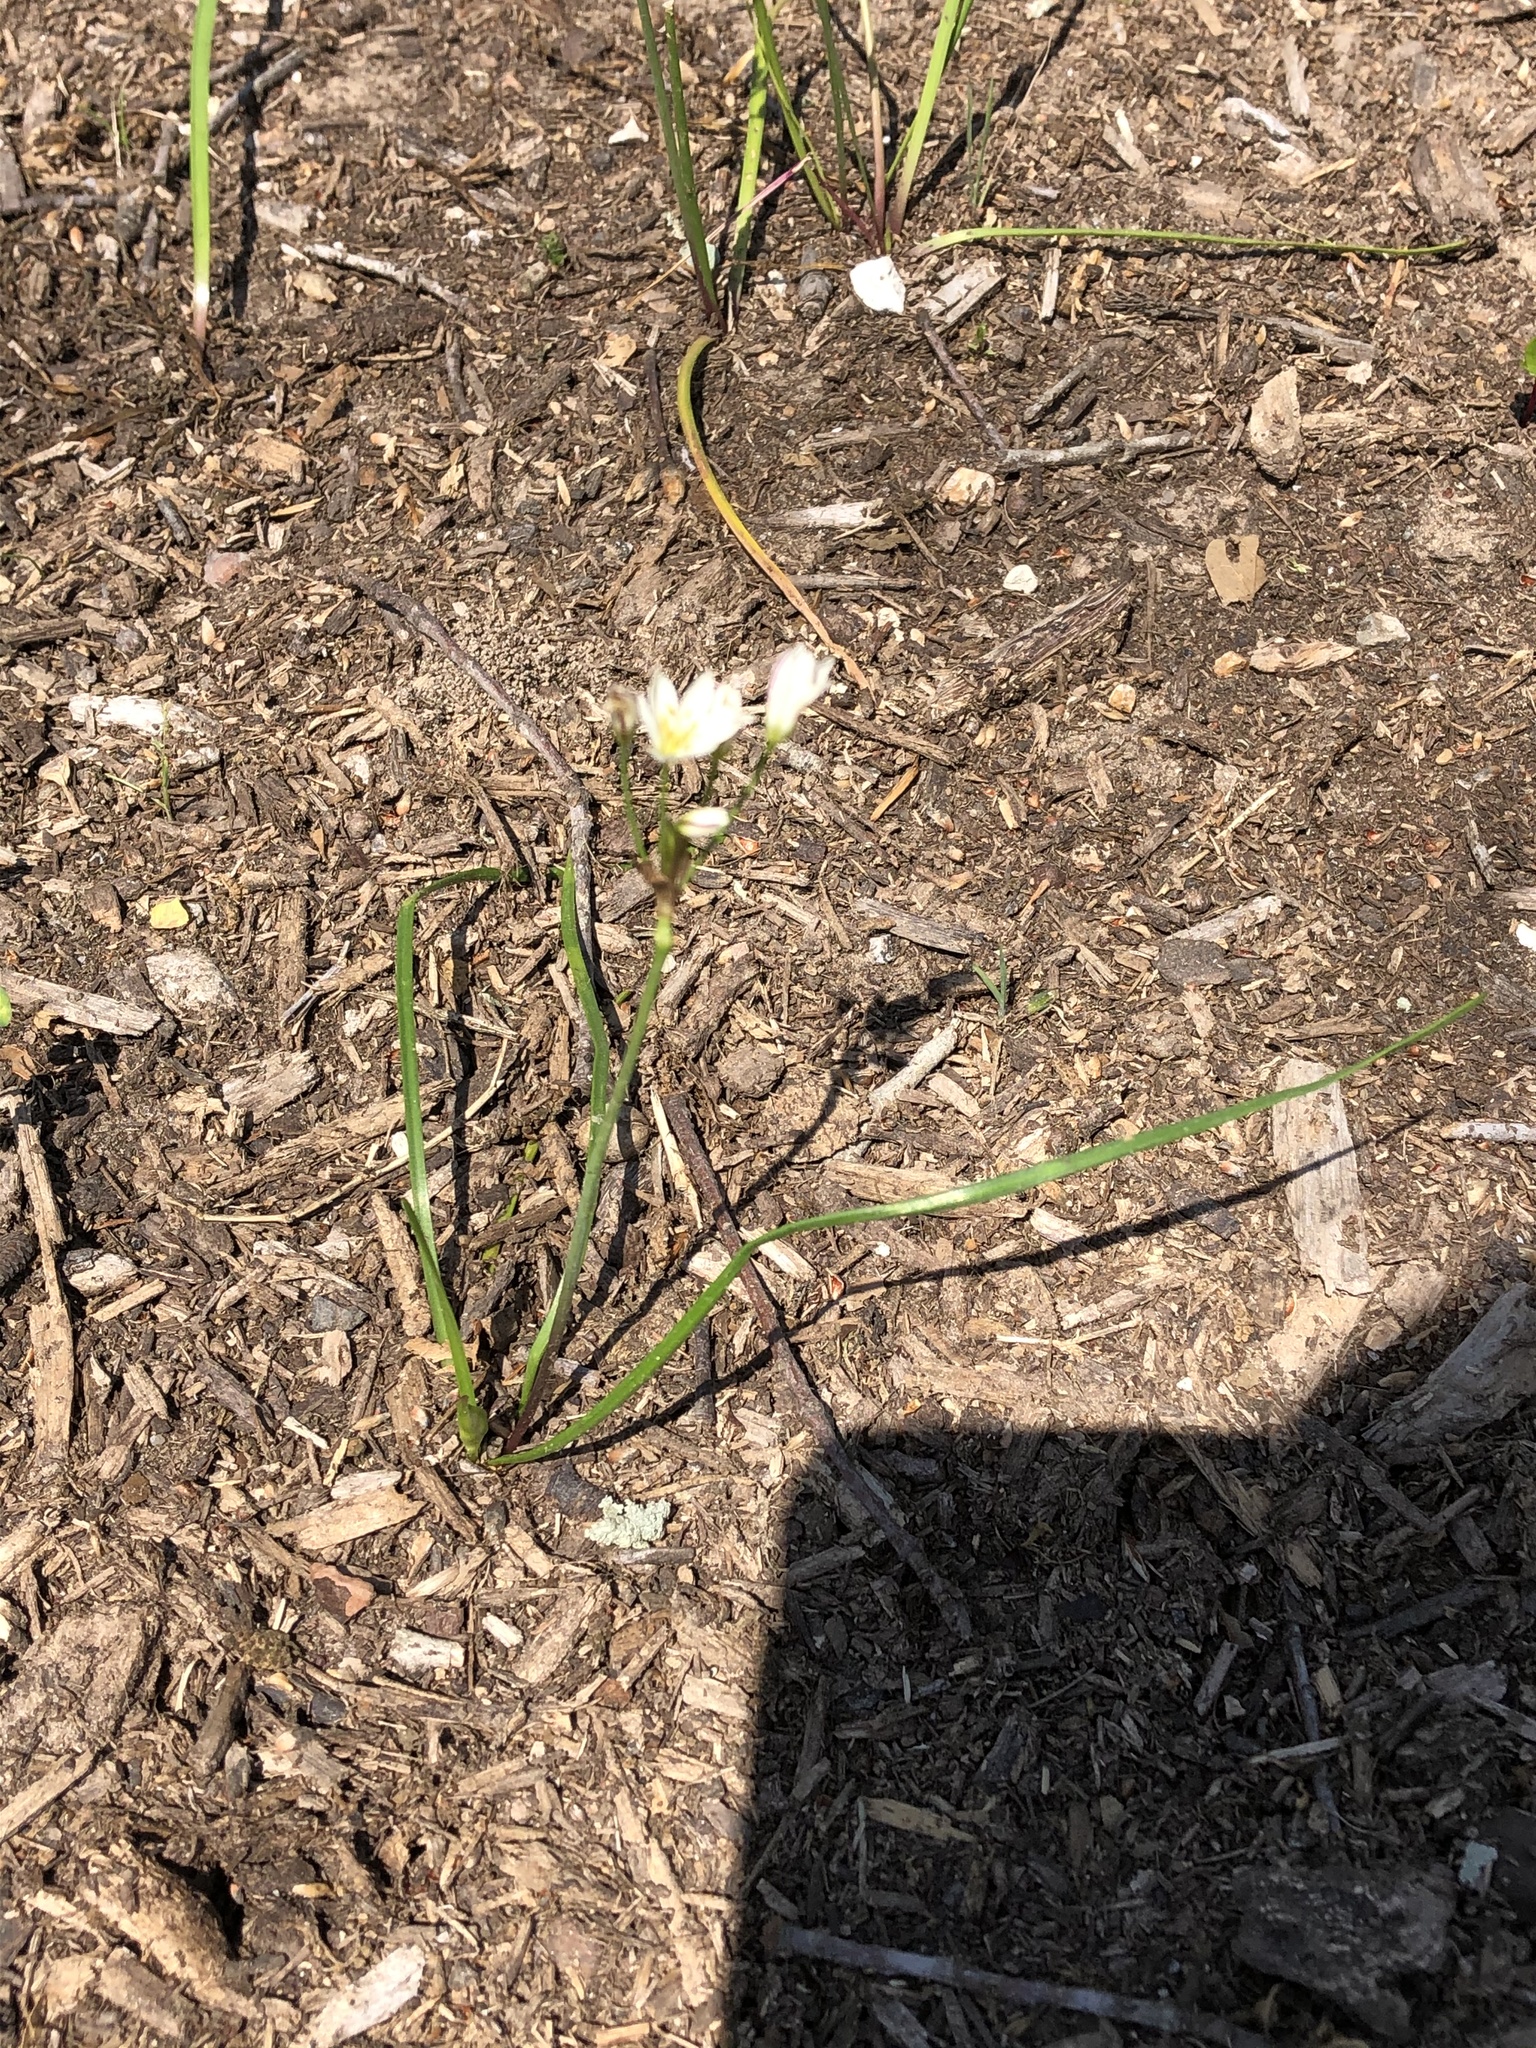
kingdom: Plantae
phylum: Tracheophyta
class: Liliopsida
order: Asparagales
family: Amaryllidaceae
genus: Nothoscordum
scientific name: Nothoscordum bivalve
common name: Crow-poison
